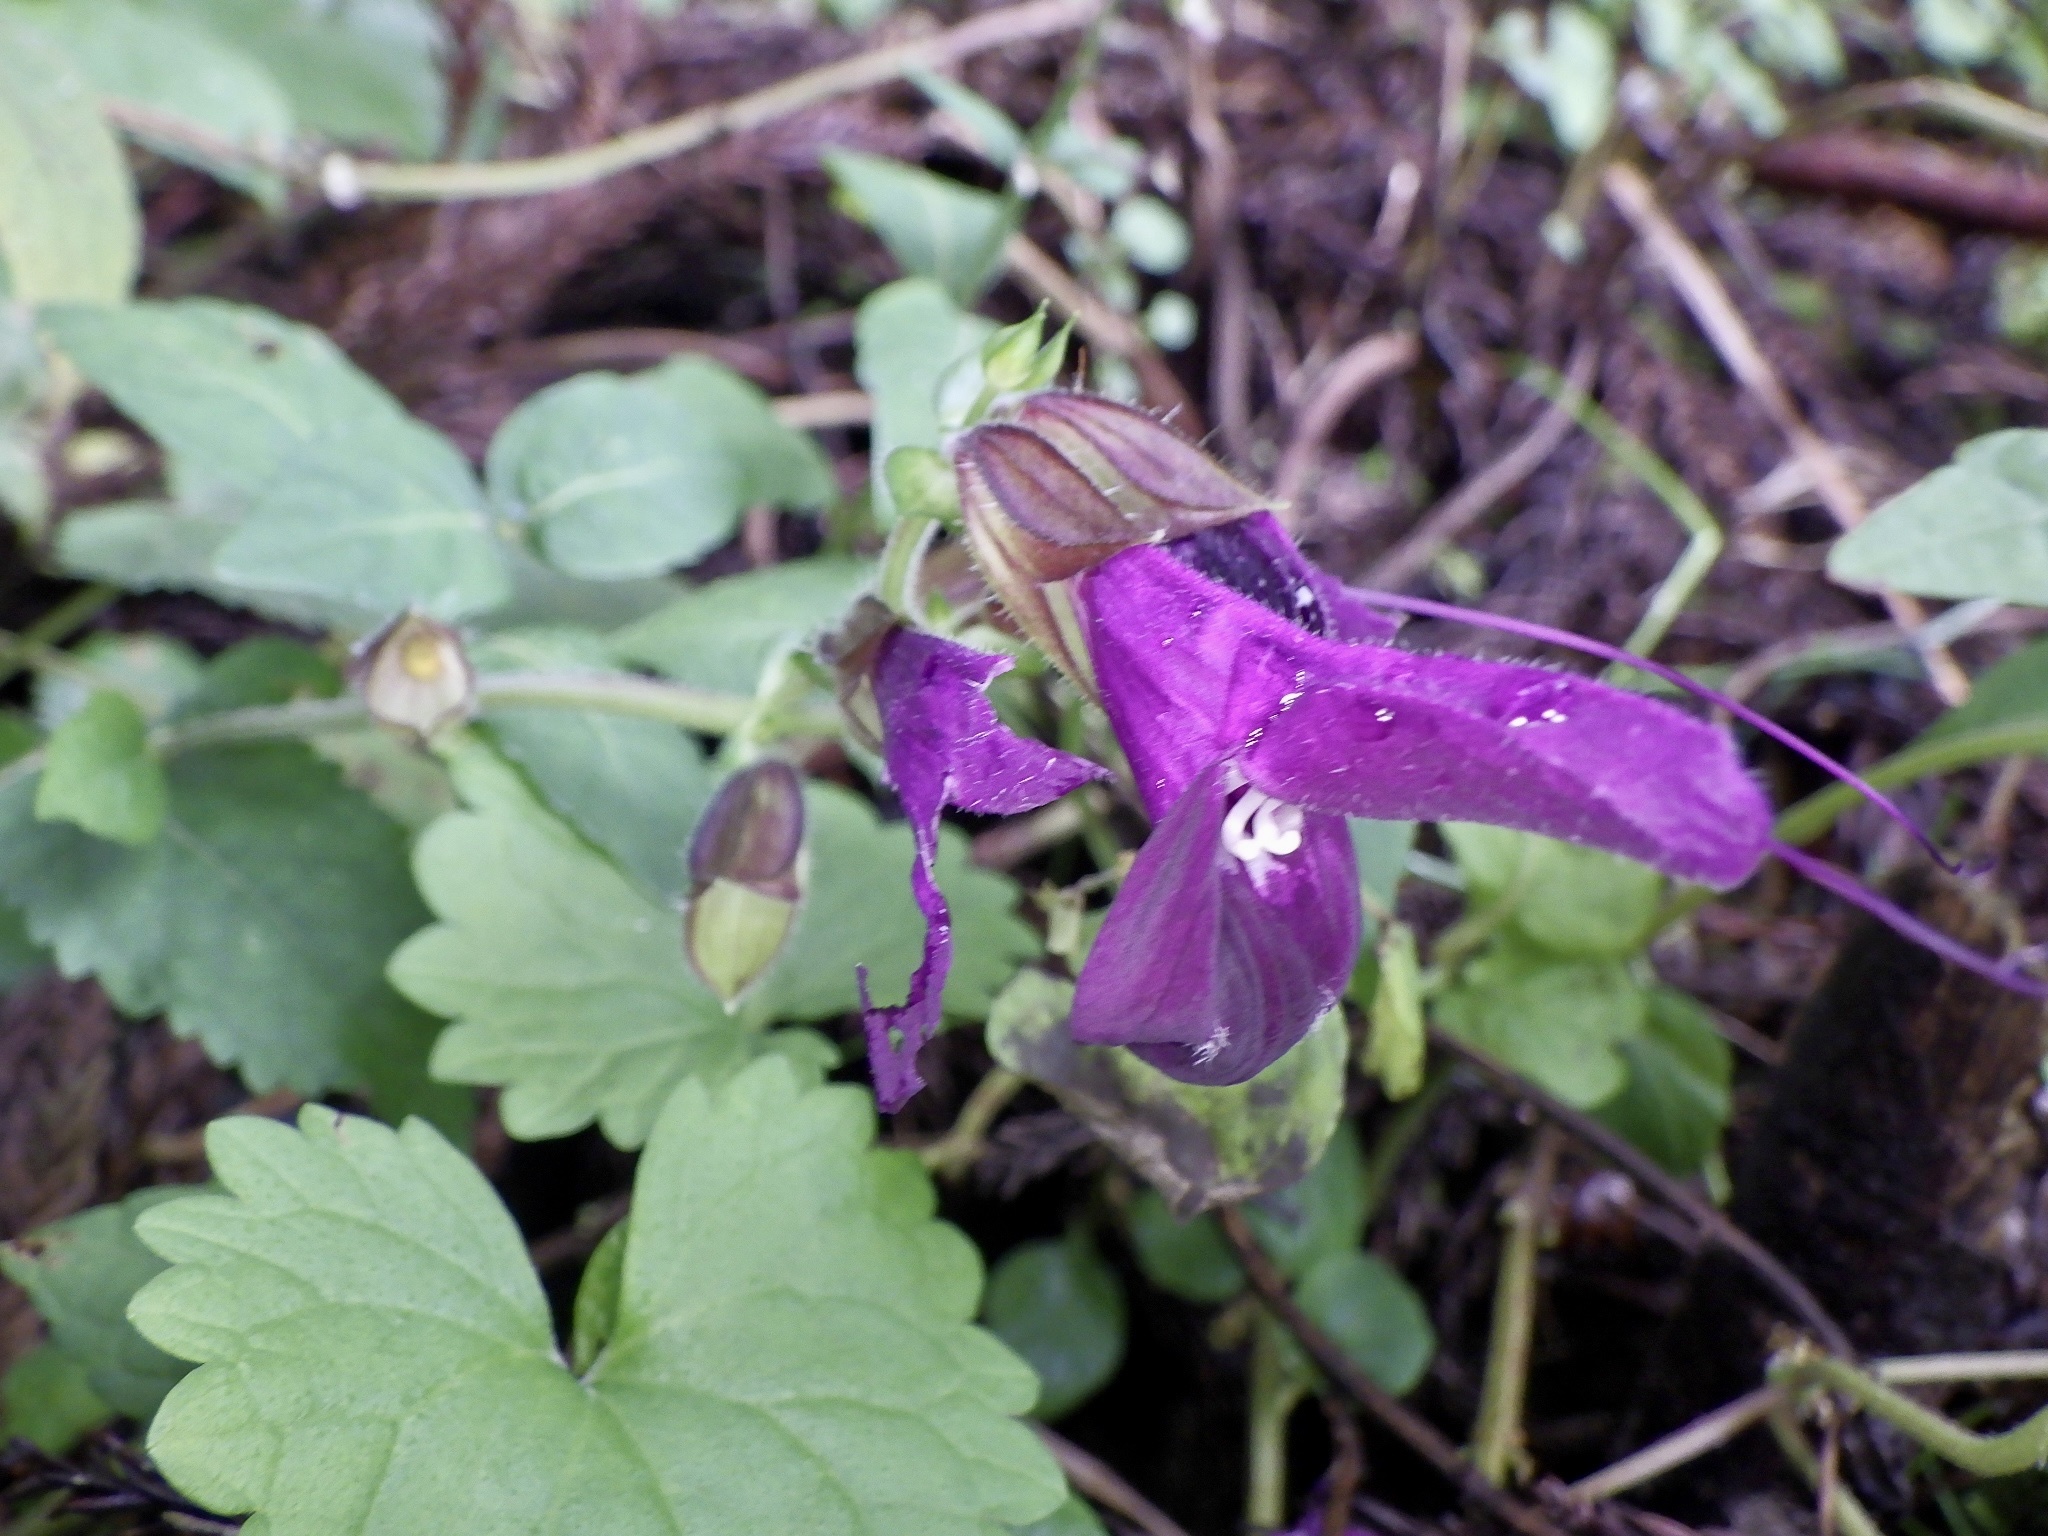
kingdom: Plantae
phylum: Tracheophyta
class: Magnoliopsida
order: Lamiales
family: Lamiaceae
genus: Salvia
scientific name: Salvia glabrescens
